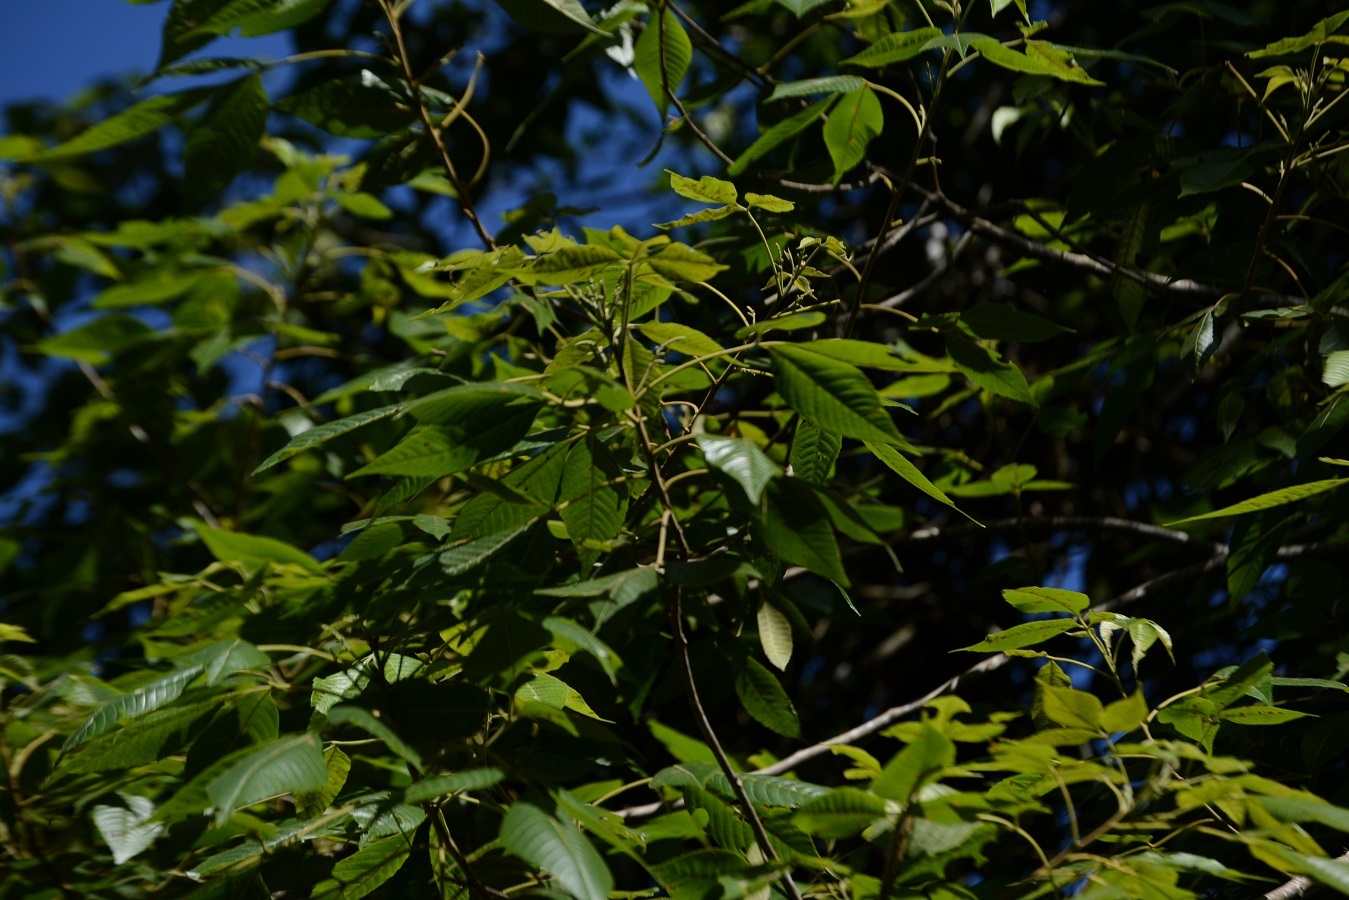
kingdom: Plantae
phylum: Tracheophyta
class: Magnoliopsida
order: Sapindales
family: Sapindaceae
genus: Thouinia
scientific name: Thouinia serrata
